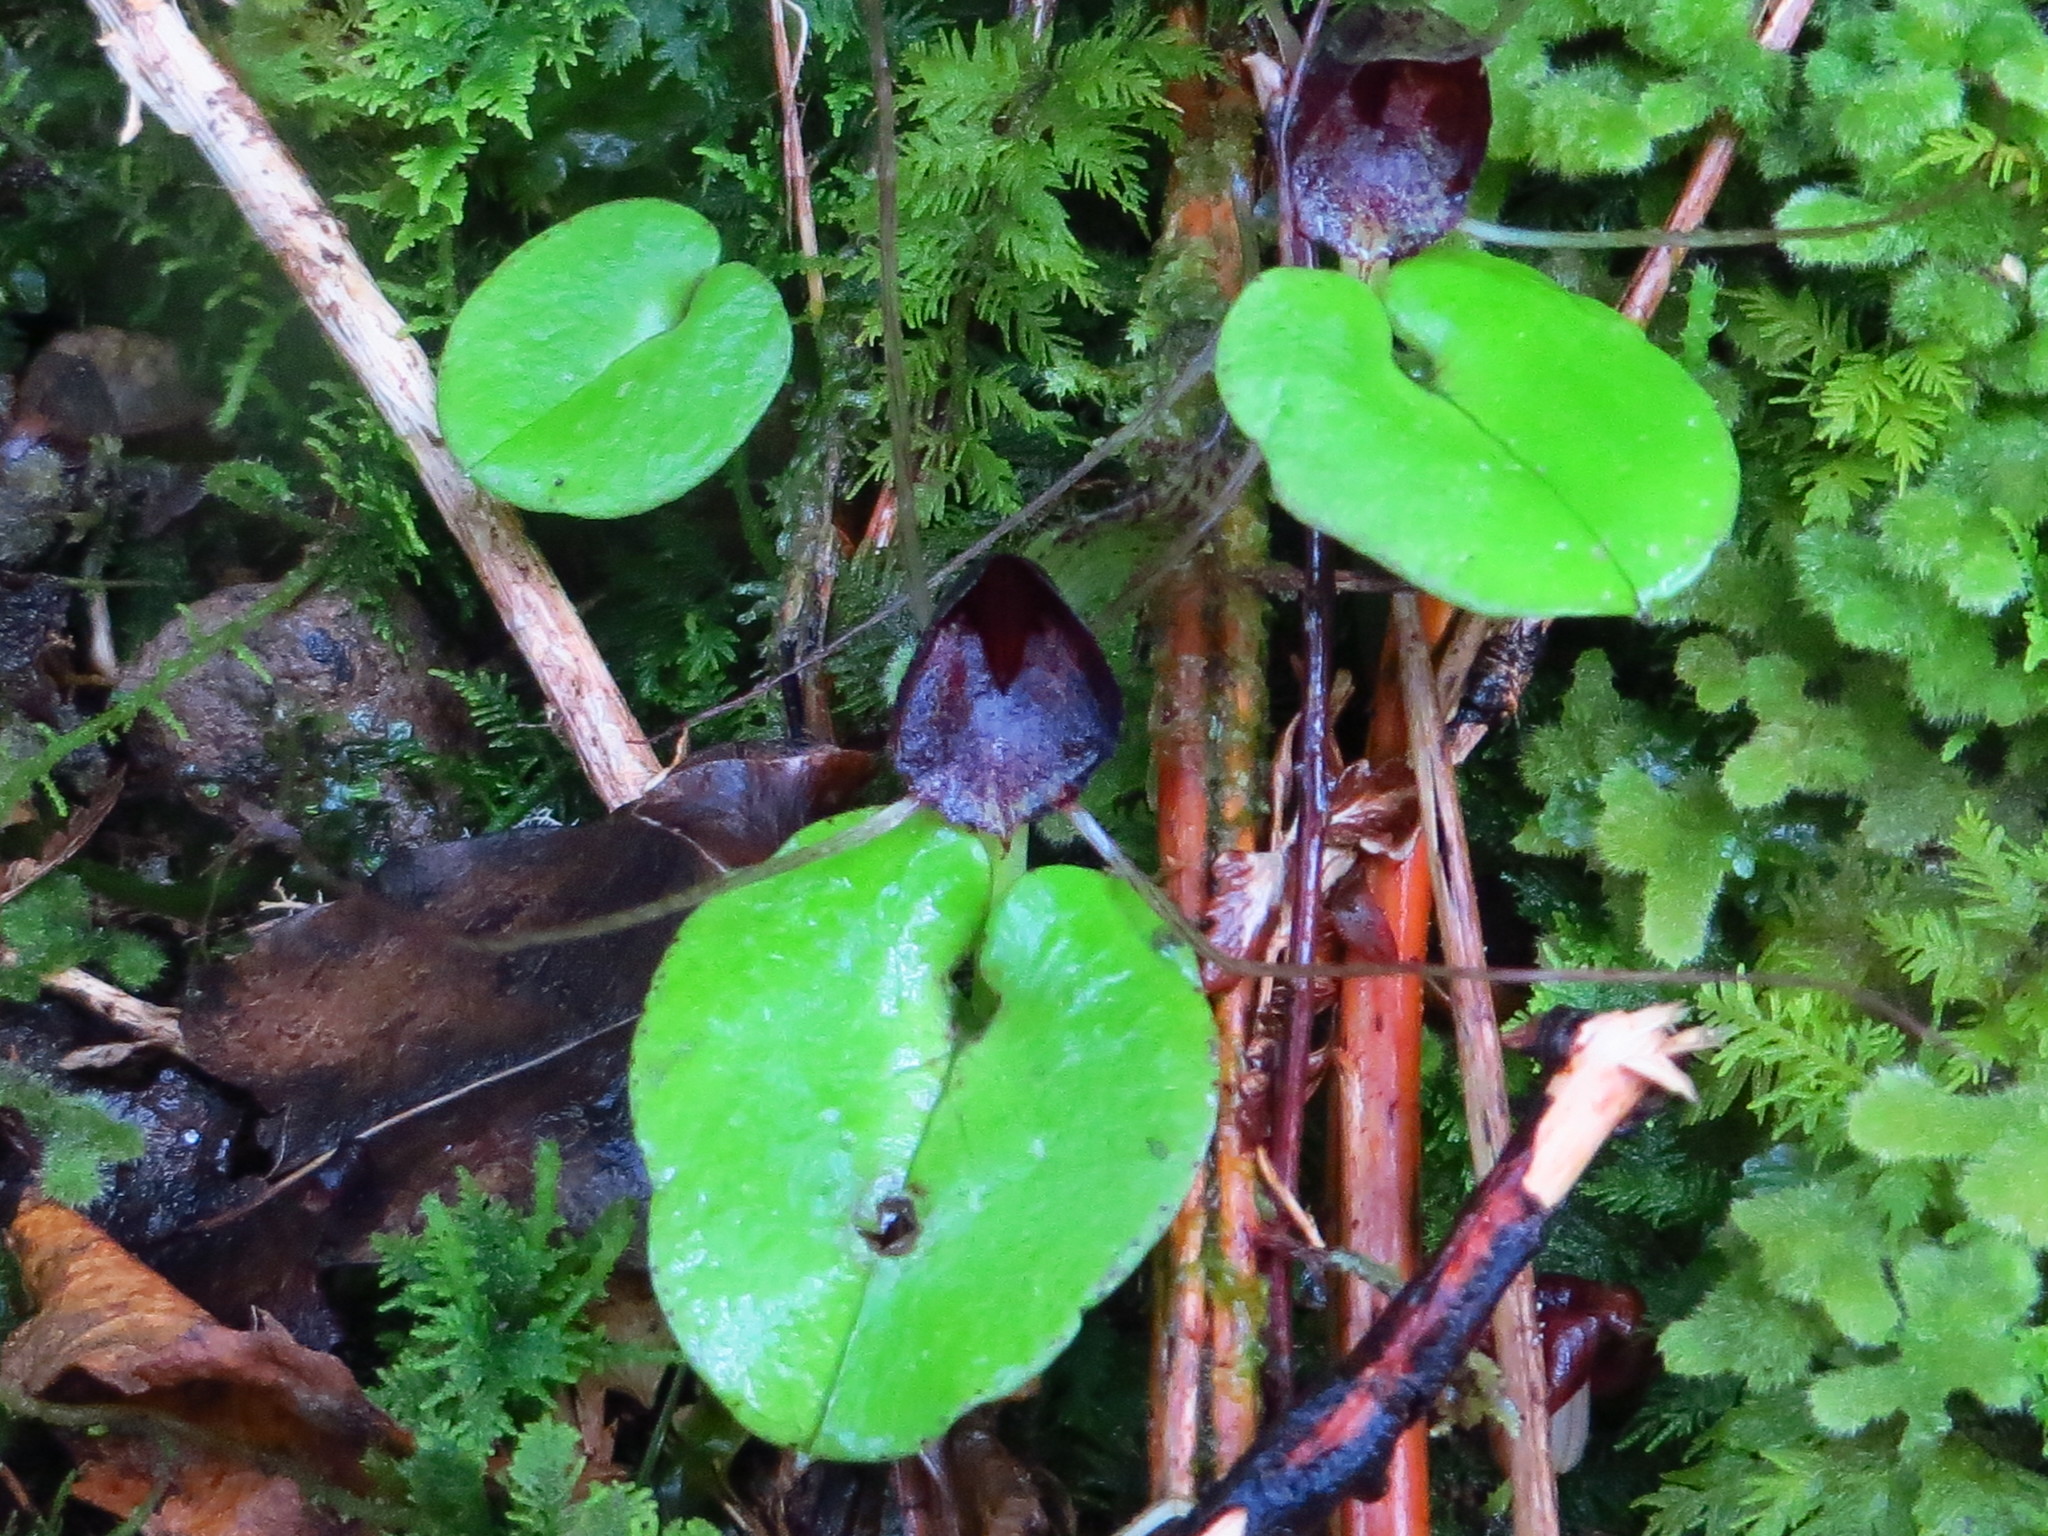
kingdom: Plantae
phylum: Tracheophyta
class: Liliopsida
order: Asparagales
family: Orchidaceae
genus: Corybas
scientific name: Corybas iridescens
